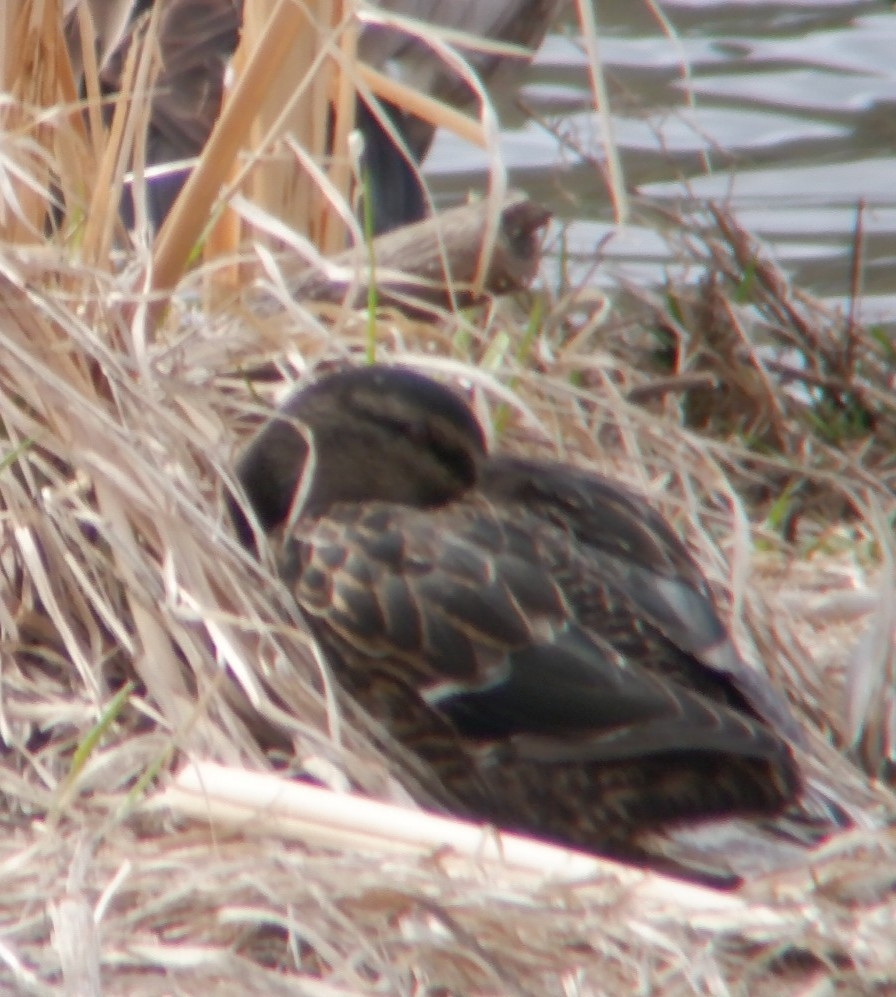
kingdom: Animalia
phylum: Chordata
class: Aves
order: Anseriformes
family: Anatidae
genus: Anas
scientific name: Anas rubripes
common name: American black duck
